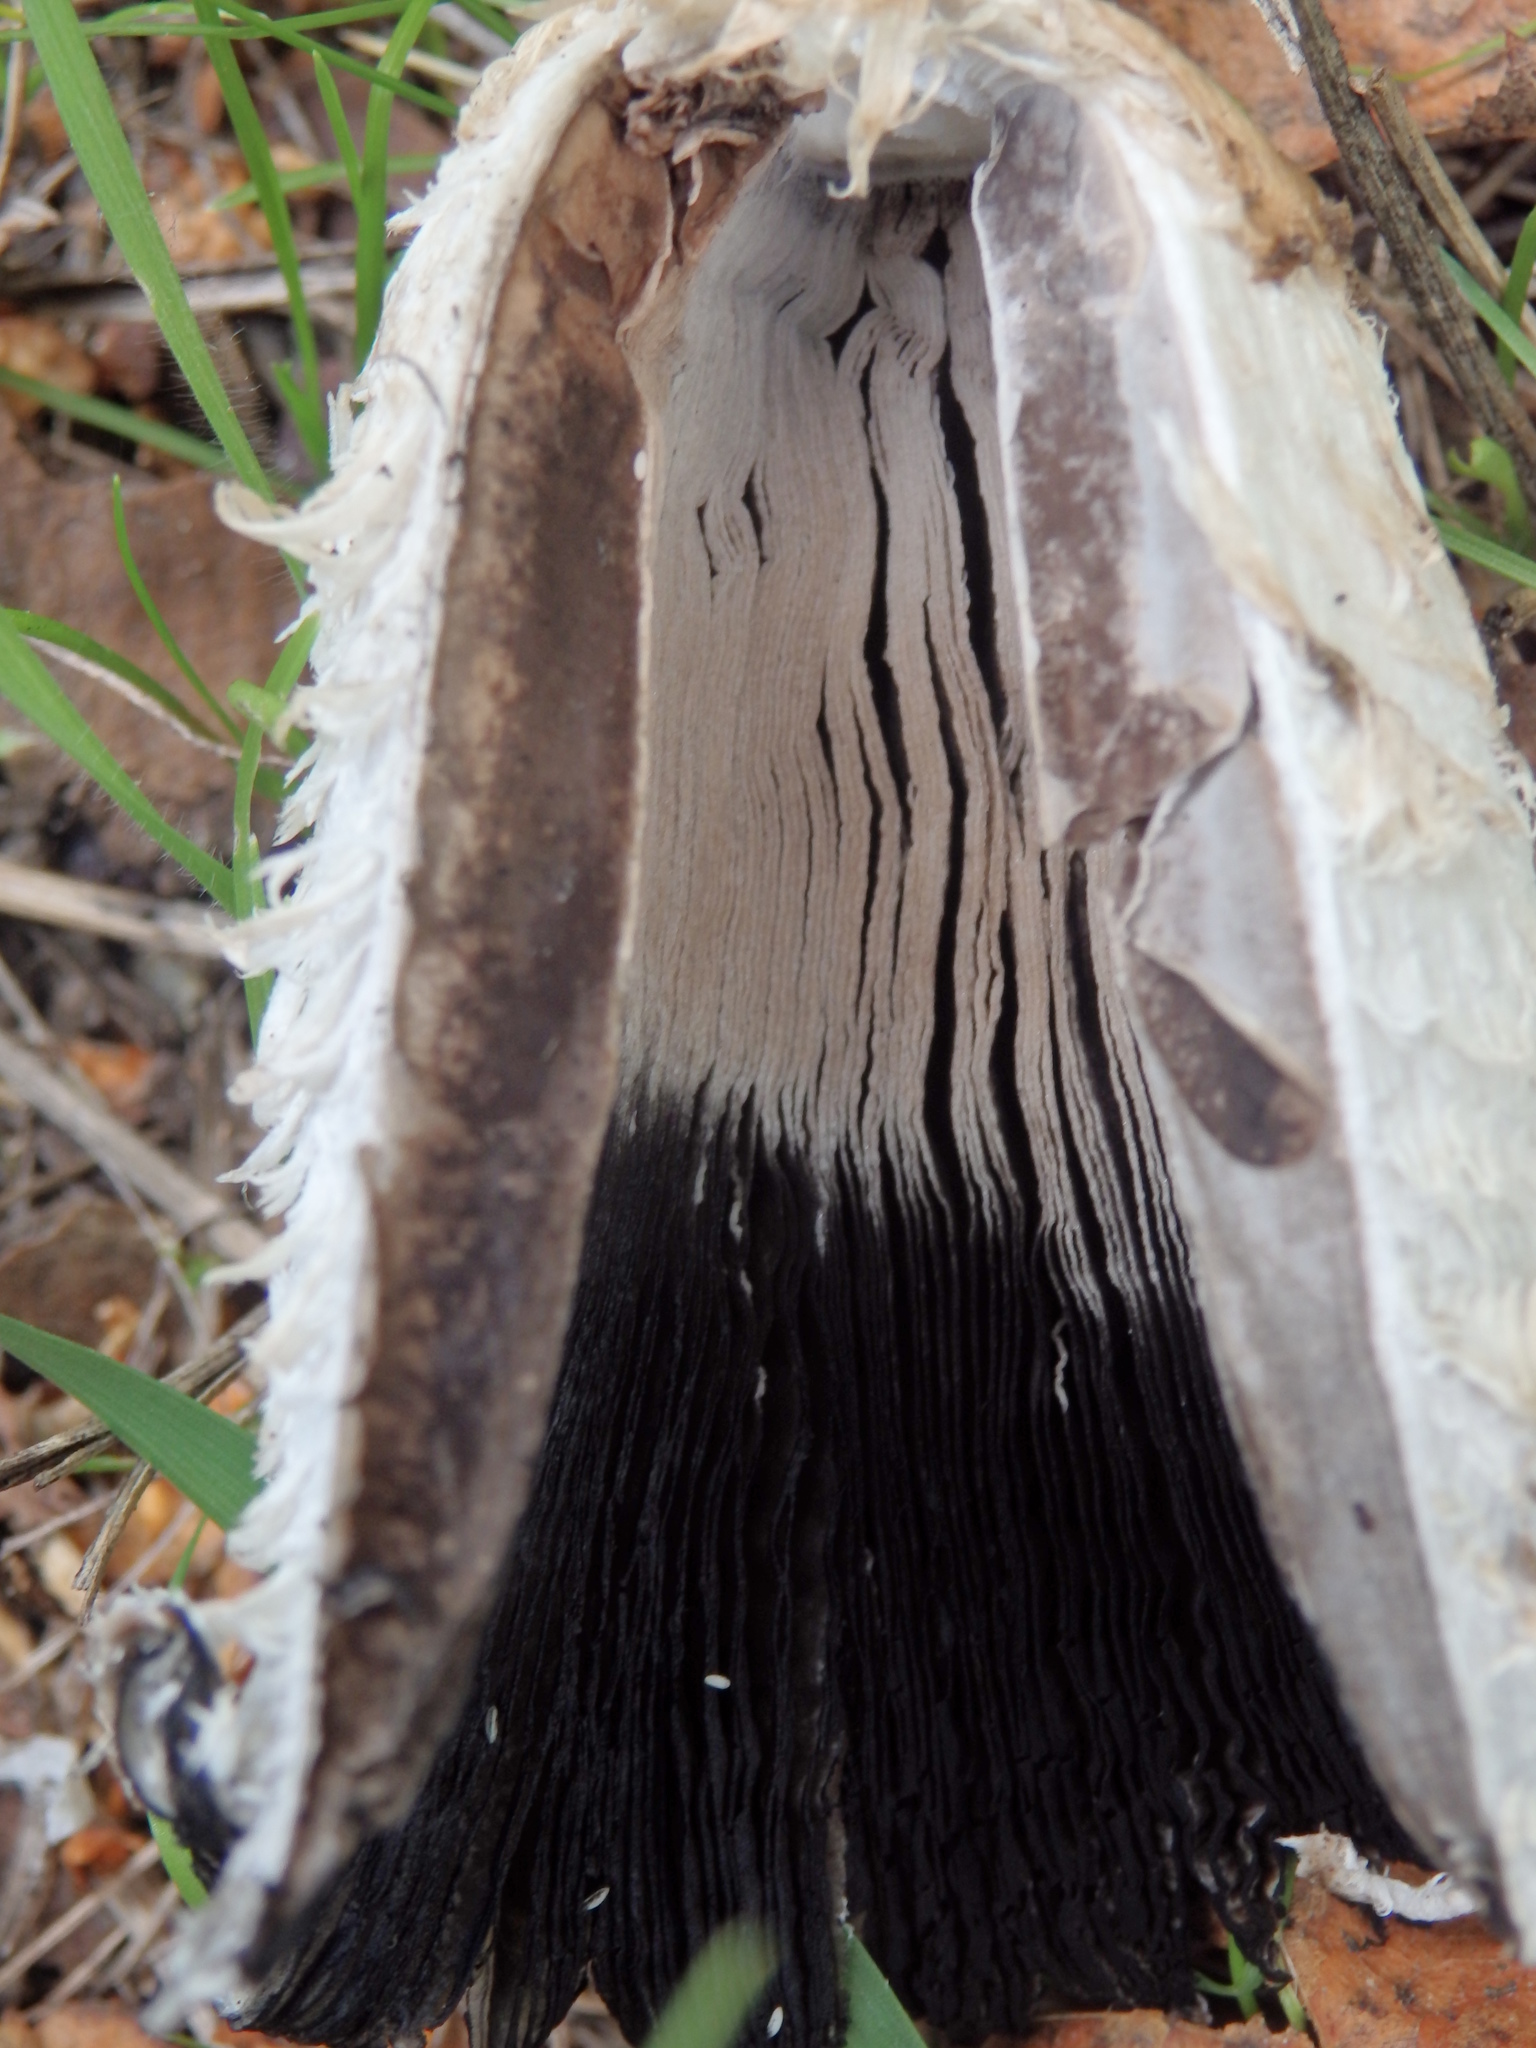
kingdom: Fungi
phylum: Basidiomycota
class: Agaricomycetes
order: Agaricales
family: Agaricaceae
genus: Coprinus
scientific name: Coprinus comatus
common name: Lawyer's wig
